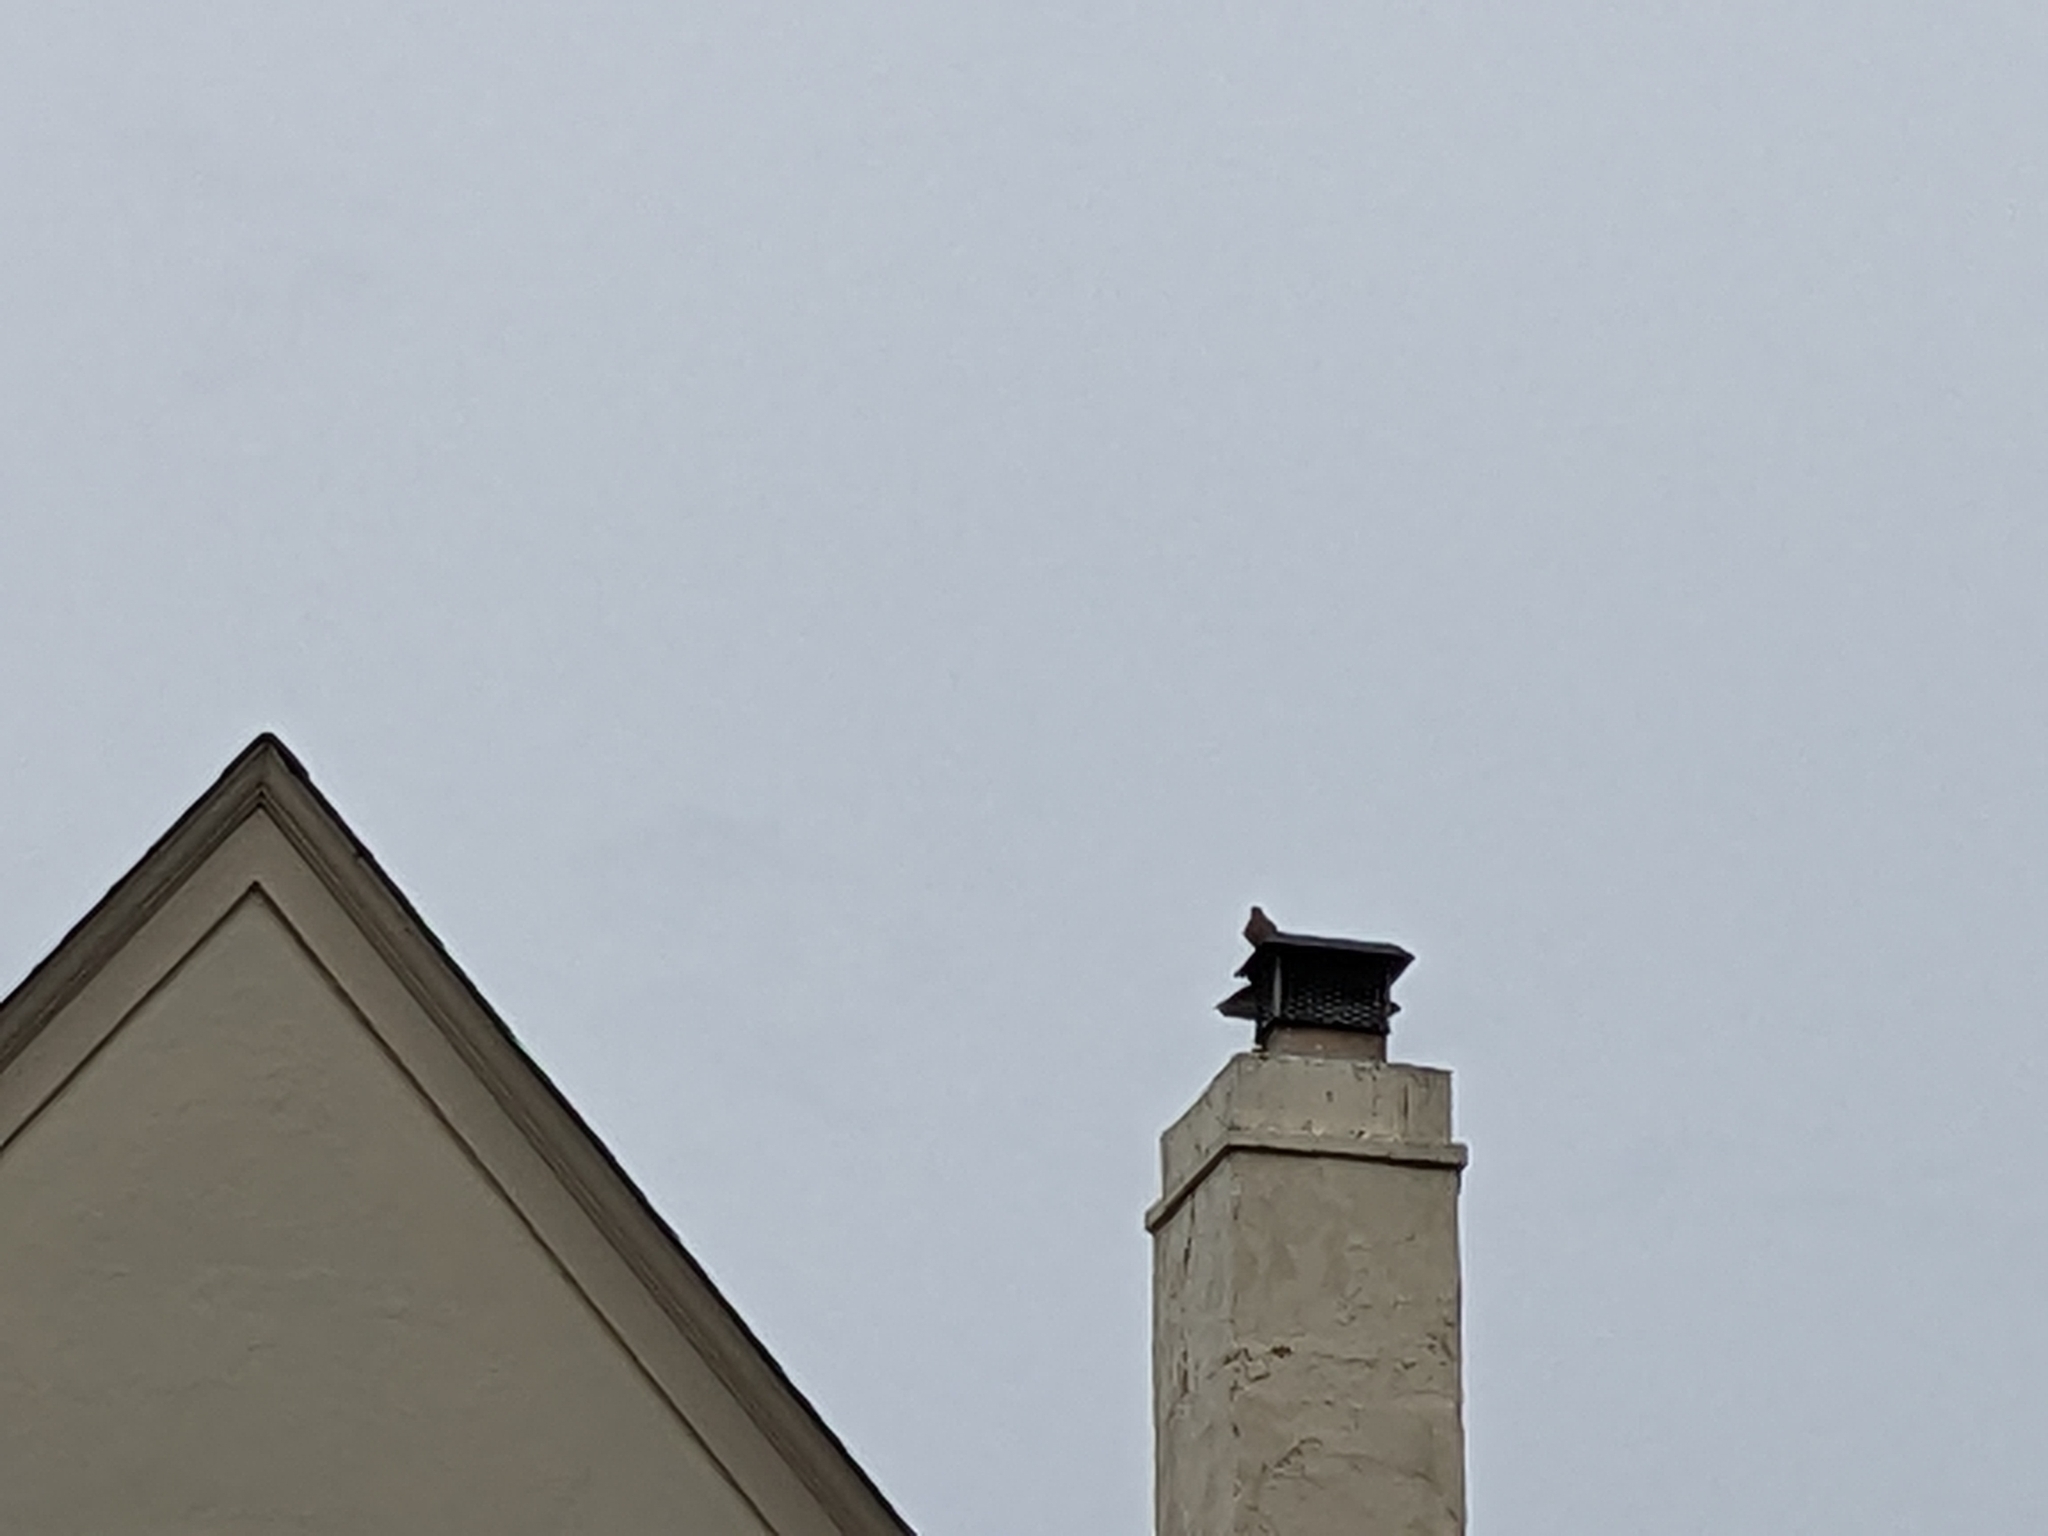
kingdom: Animalia
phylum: Chordata
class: Aves
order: Columbiformes
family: Columbidae
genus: Zenaida
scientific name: Zenaida macroura
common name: Mourning dove
